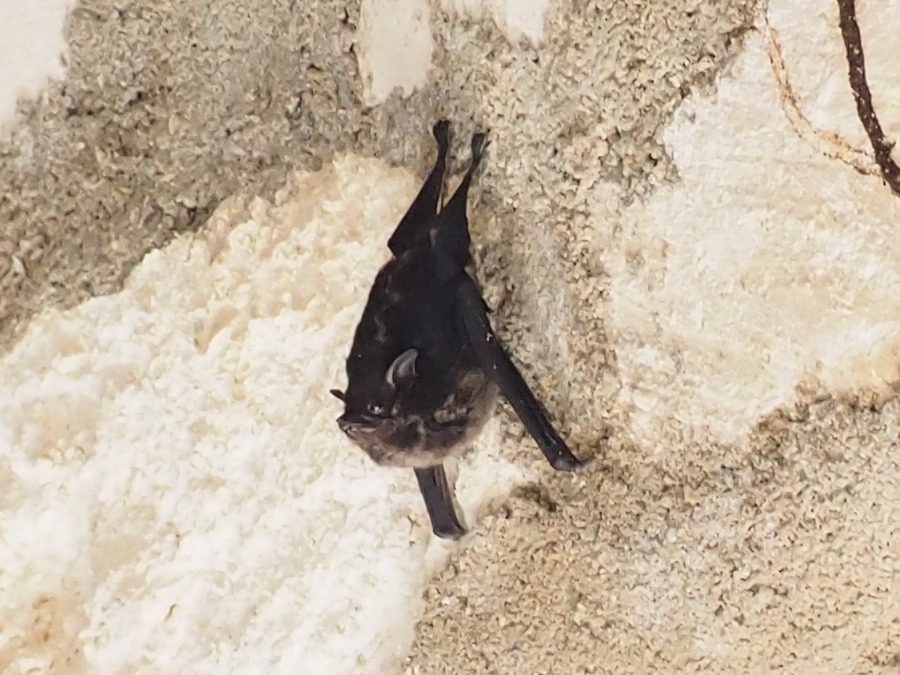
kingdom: Animalia
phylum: Chordata
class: Mammalia
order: Chiroptera
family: Emballonuridae
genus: Saccopteryx
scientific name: Saccopteryx bilineata
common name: Greater sac-winged bat
